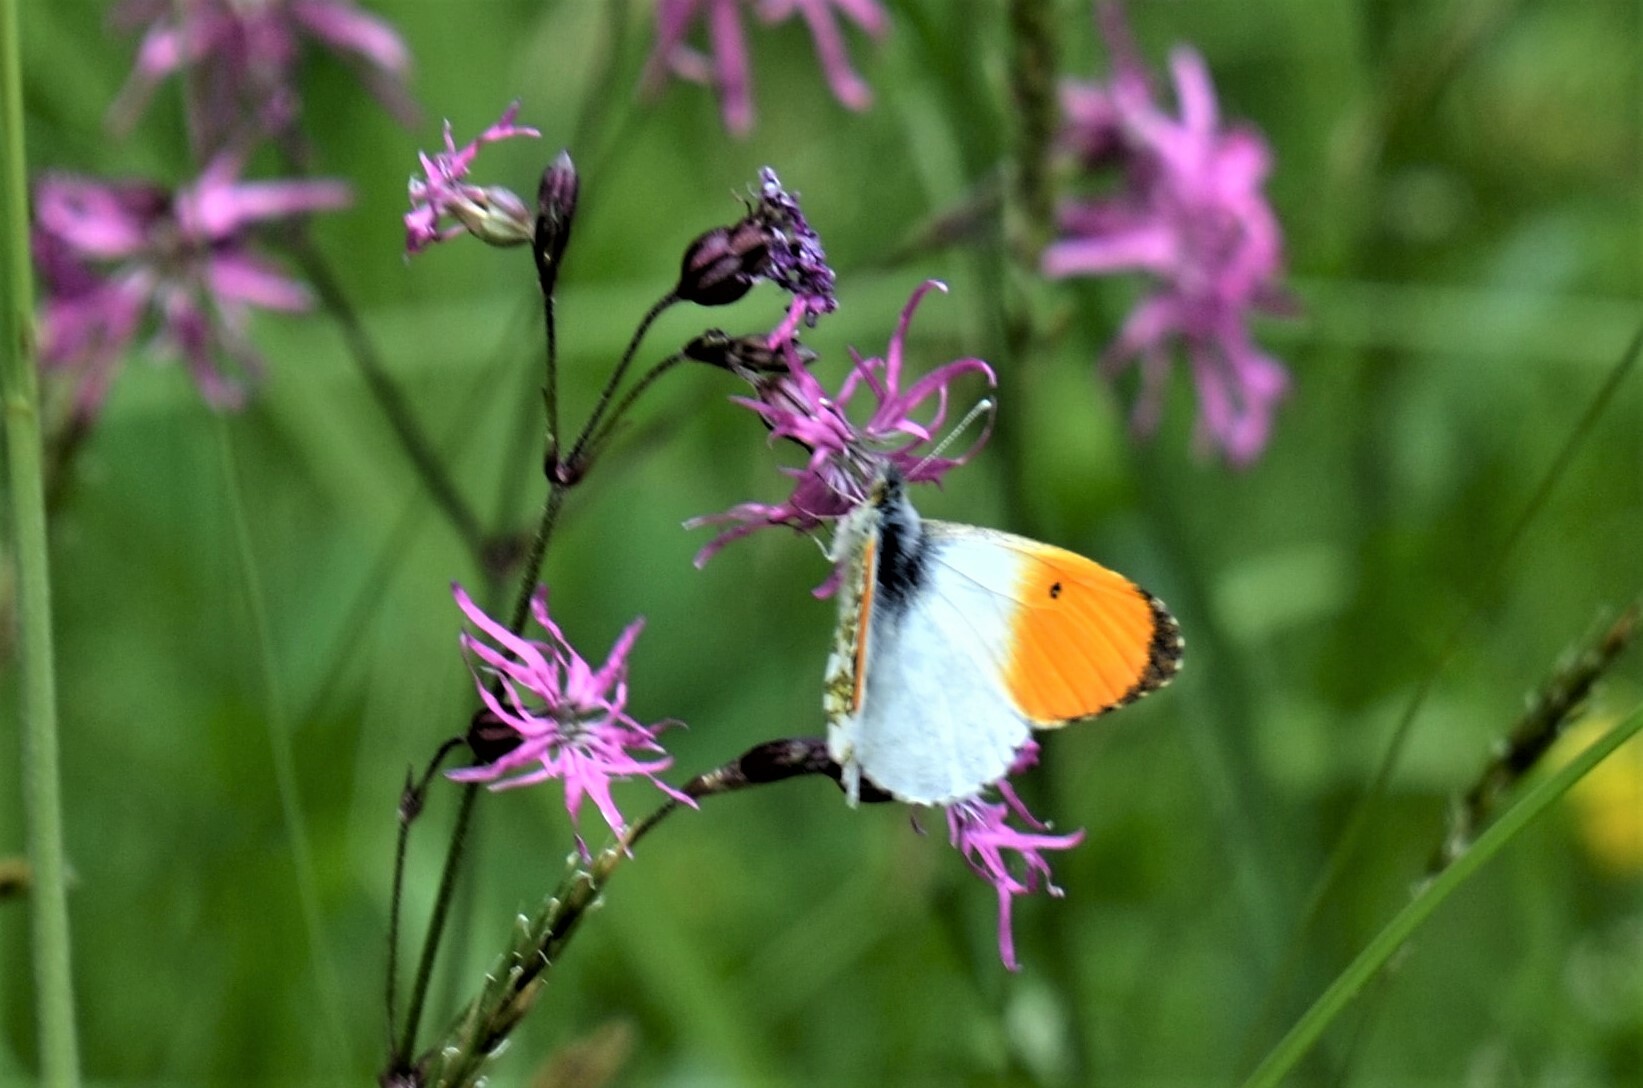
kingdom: Animalia
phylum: Arthropoda
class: Insecta
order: Lepidoptera
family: Pieridae
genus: Anthocharis
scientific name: Anthocharis cardamines
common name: Orange-tip
